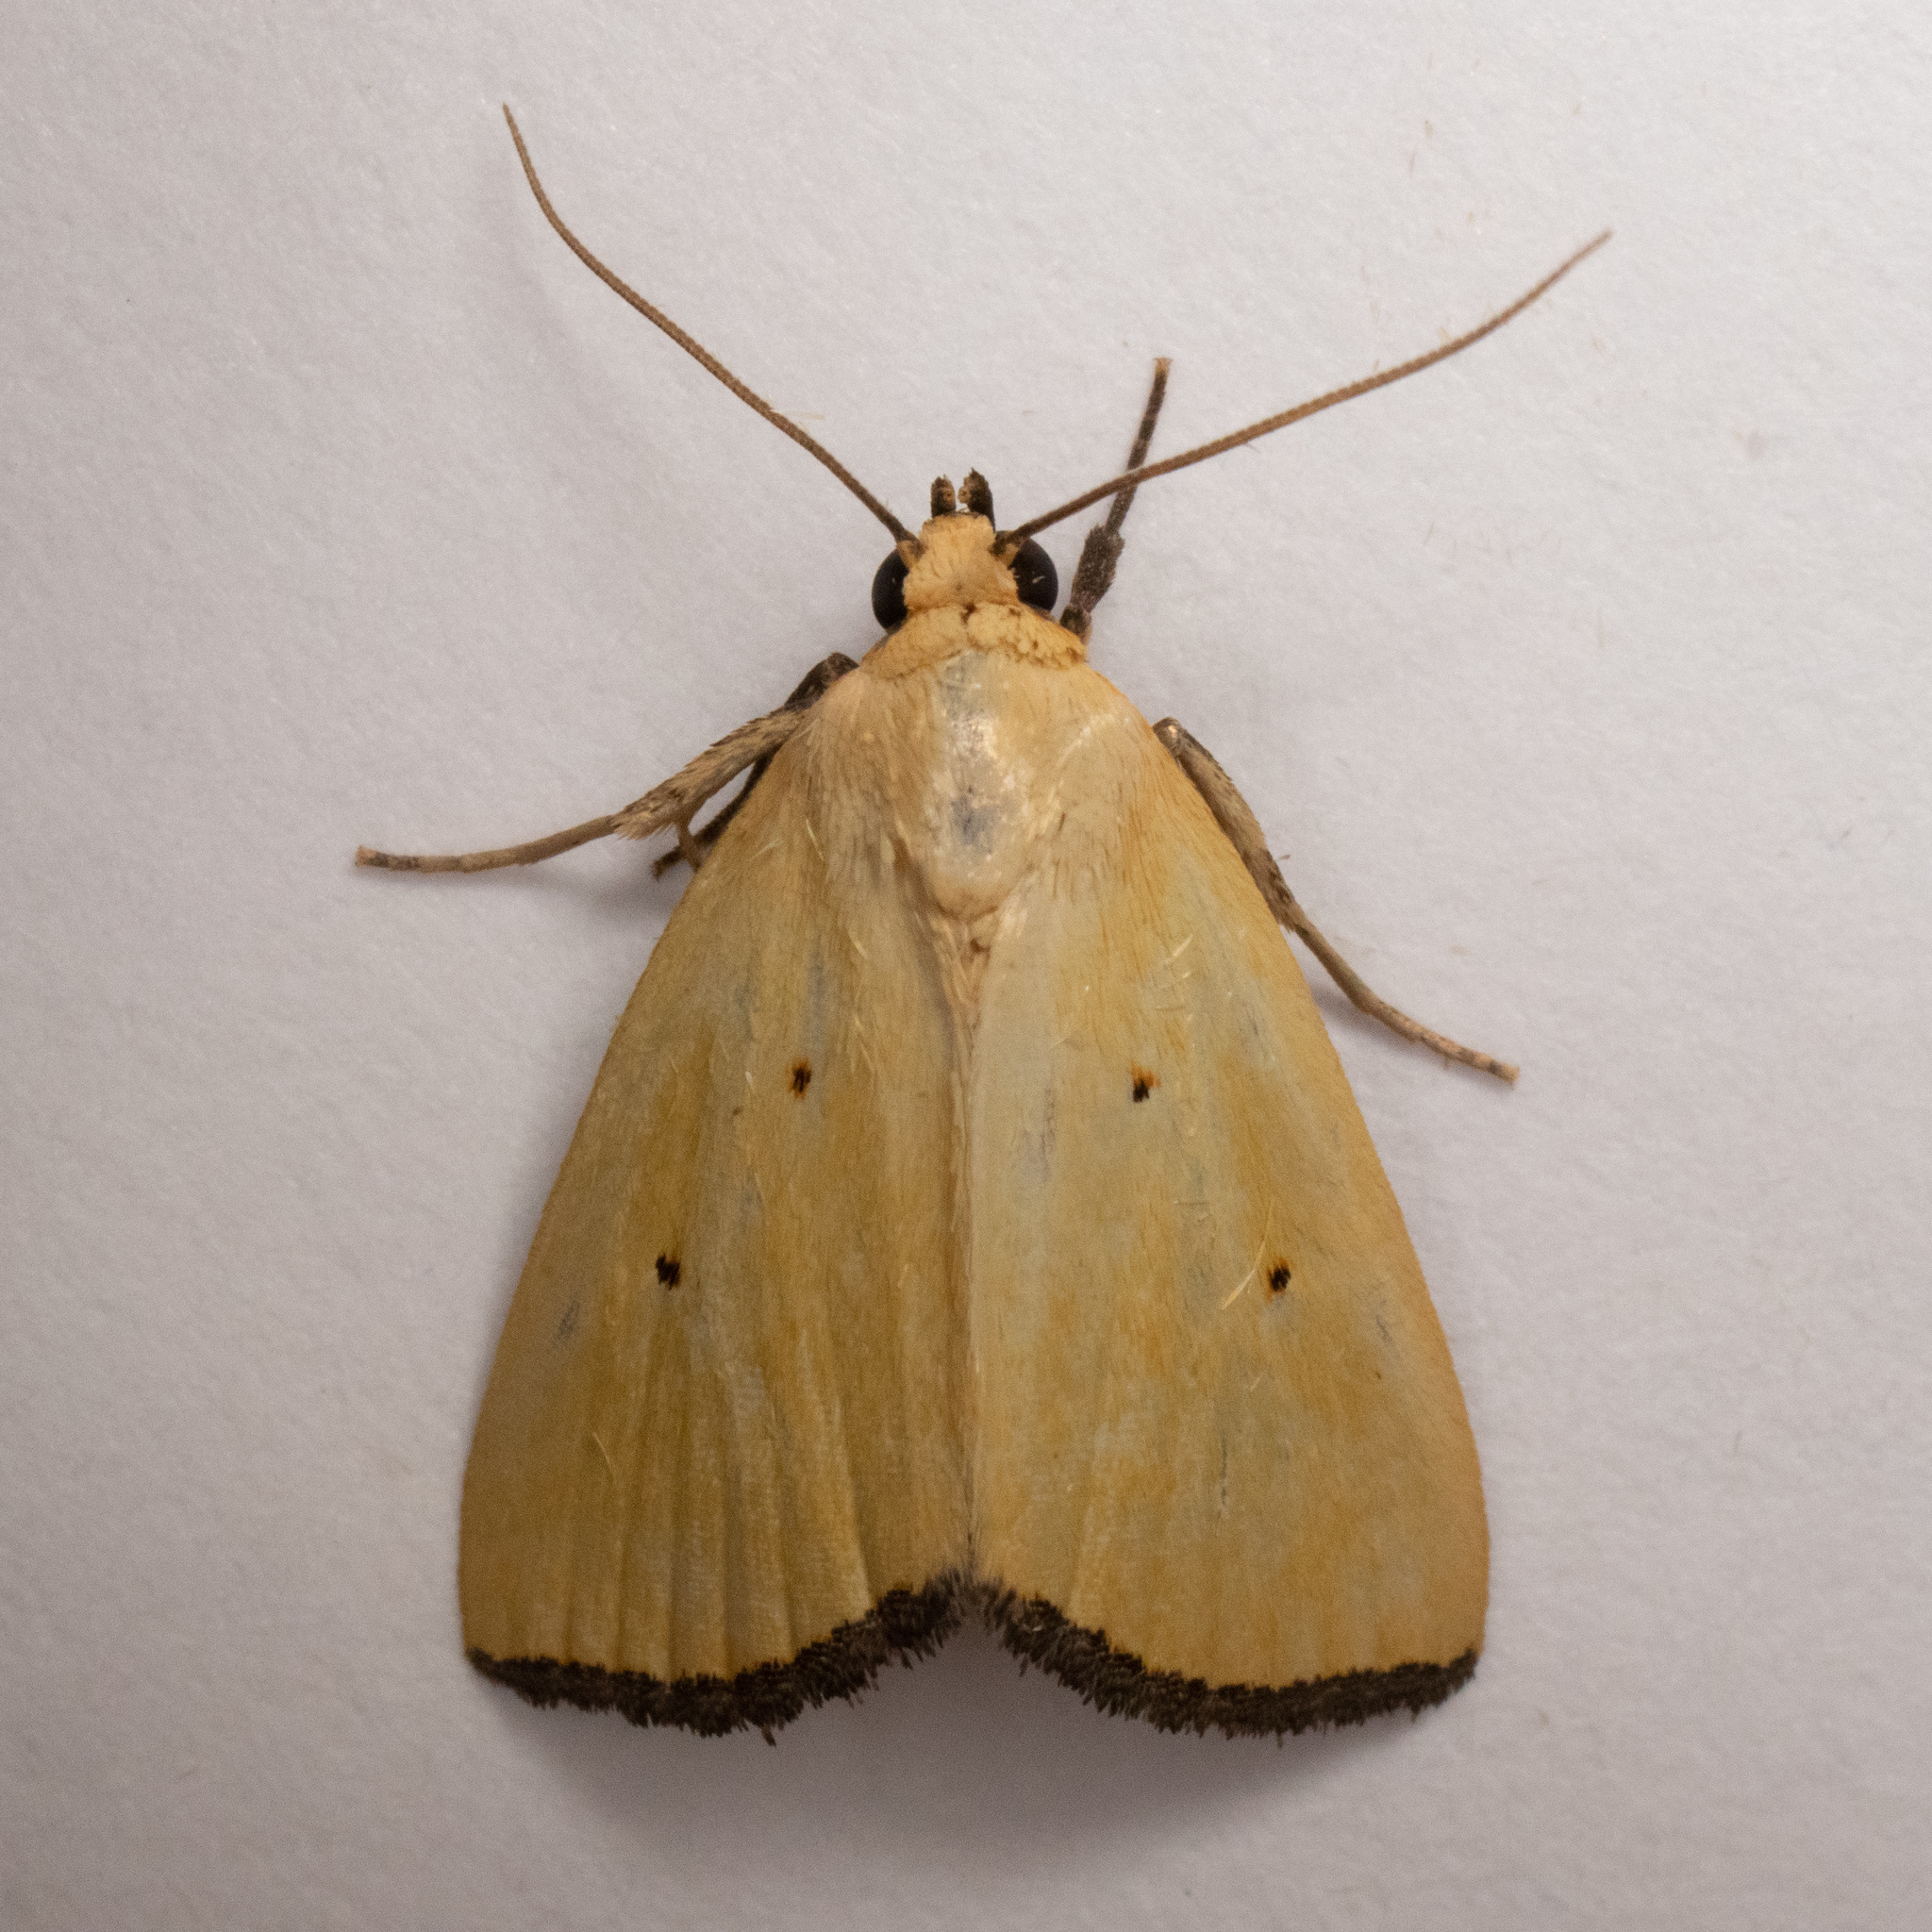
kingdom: Animalia
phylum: Arthropoda
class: Insecta
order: Lepidoptera
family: Noctuidae
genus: Marimatha
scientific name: Marimatha nigrofimbria
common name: Black-bordered lemon moth
